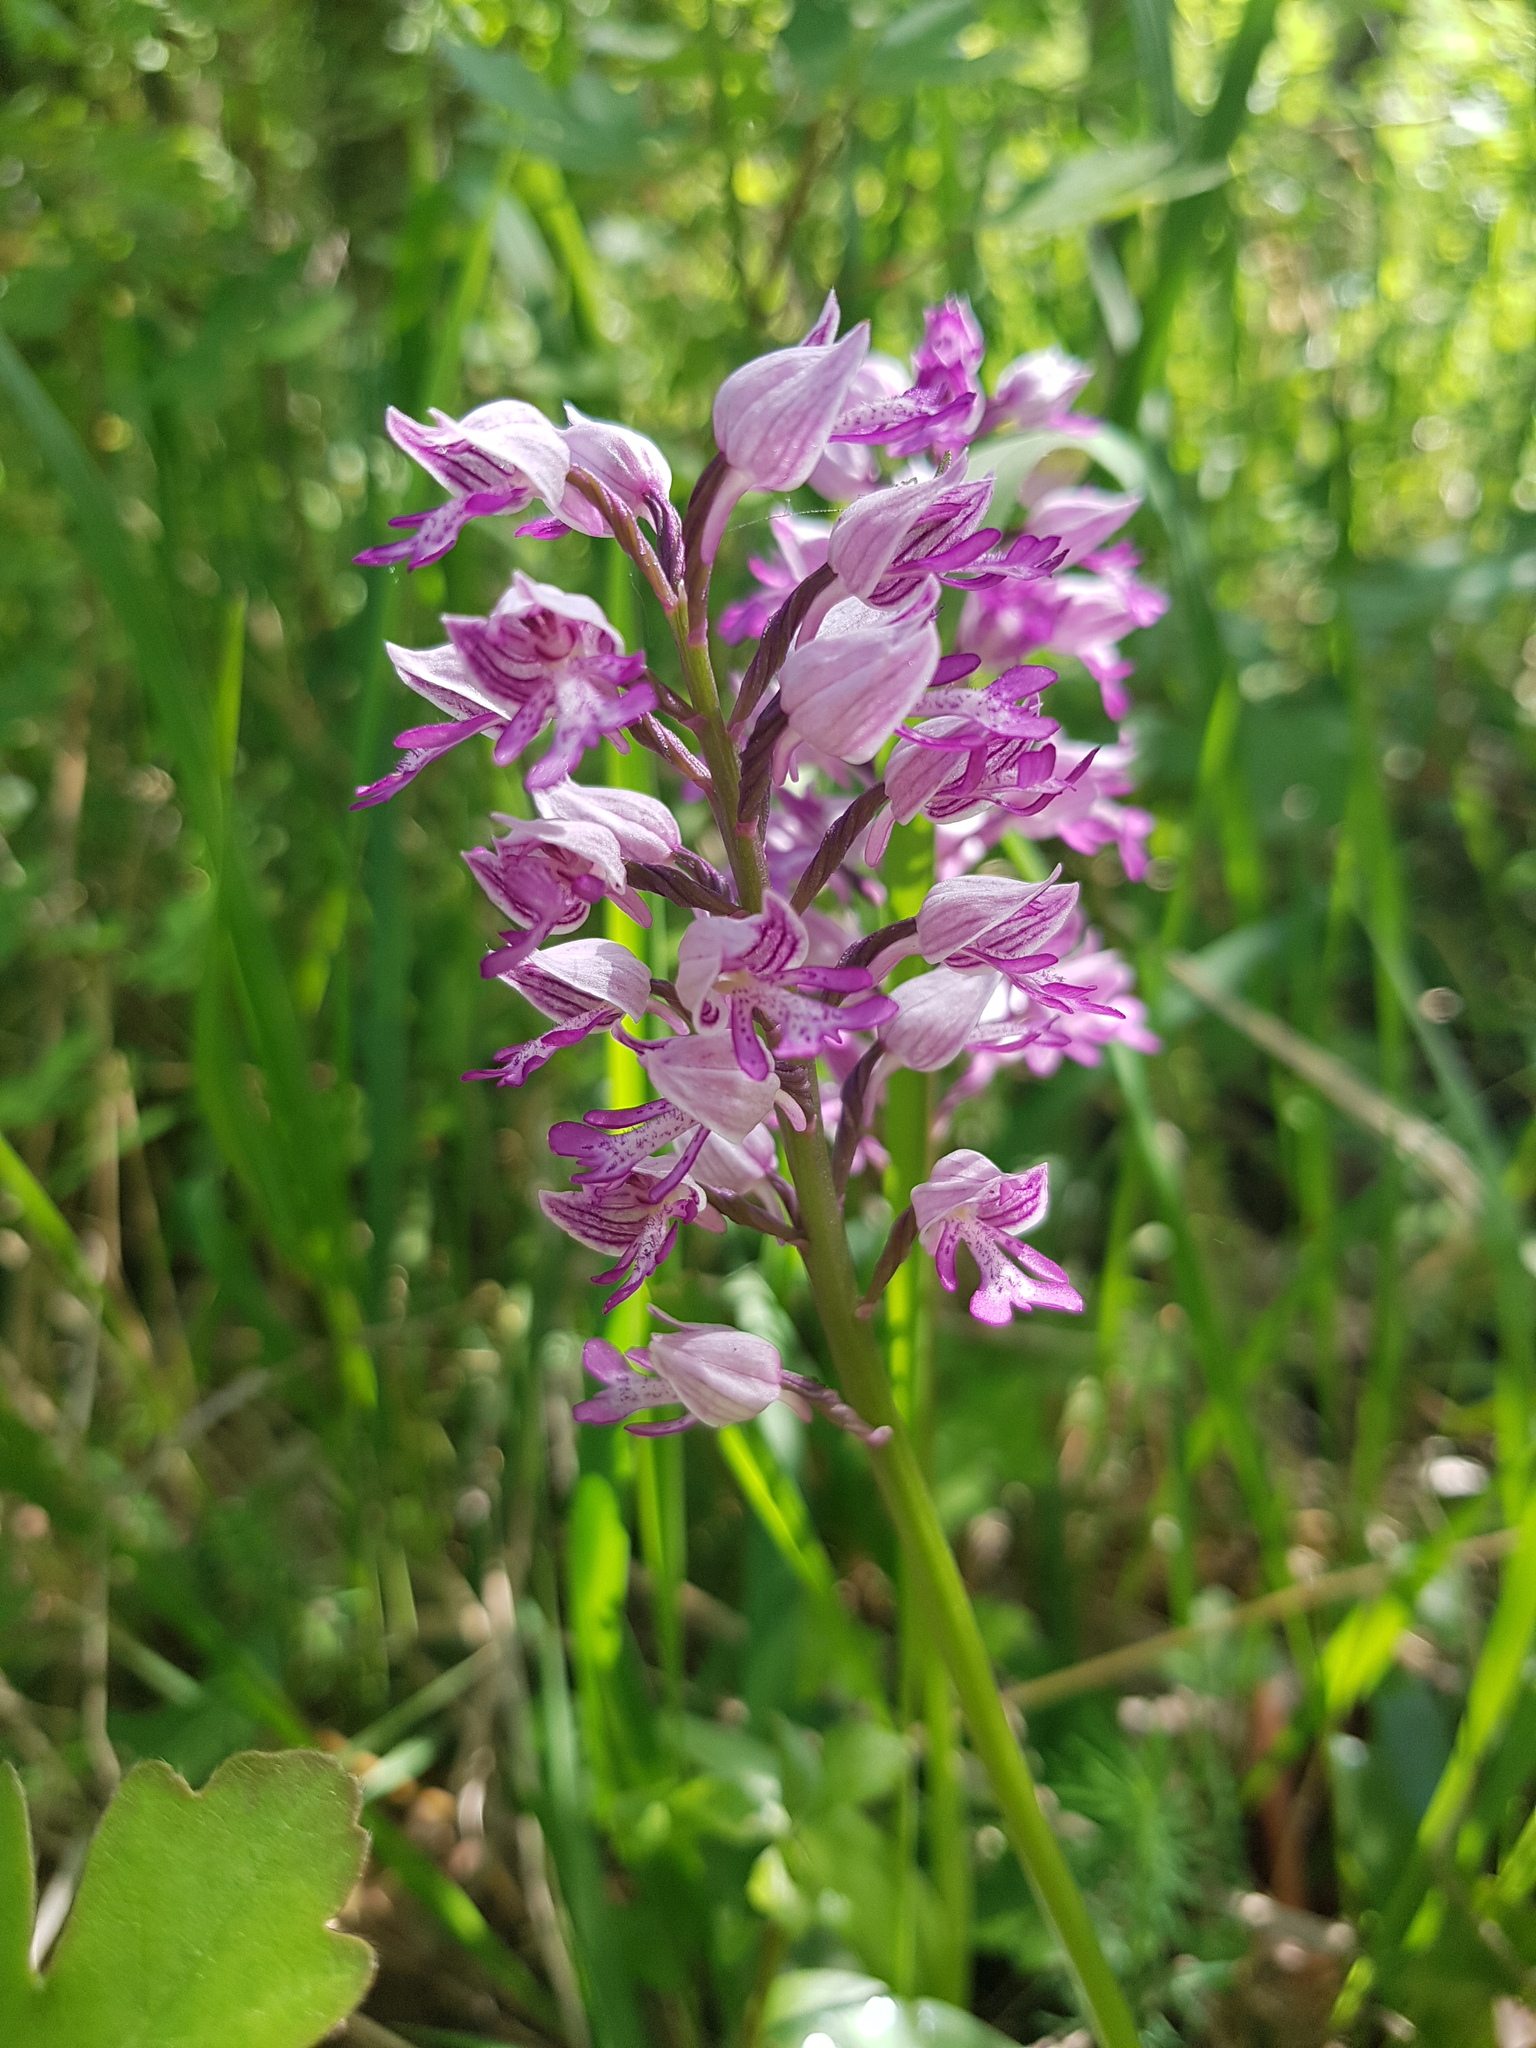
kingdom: Plantae
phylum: Tracheophyta
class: Liliopsida
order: Asparagales
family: Orchidaceae
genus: Orchis
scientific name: Orchis militaris
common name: Military orchid
